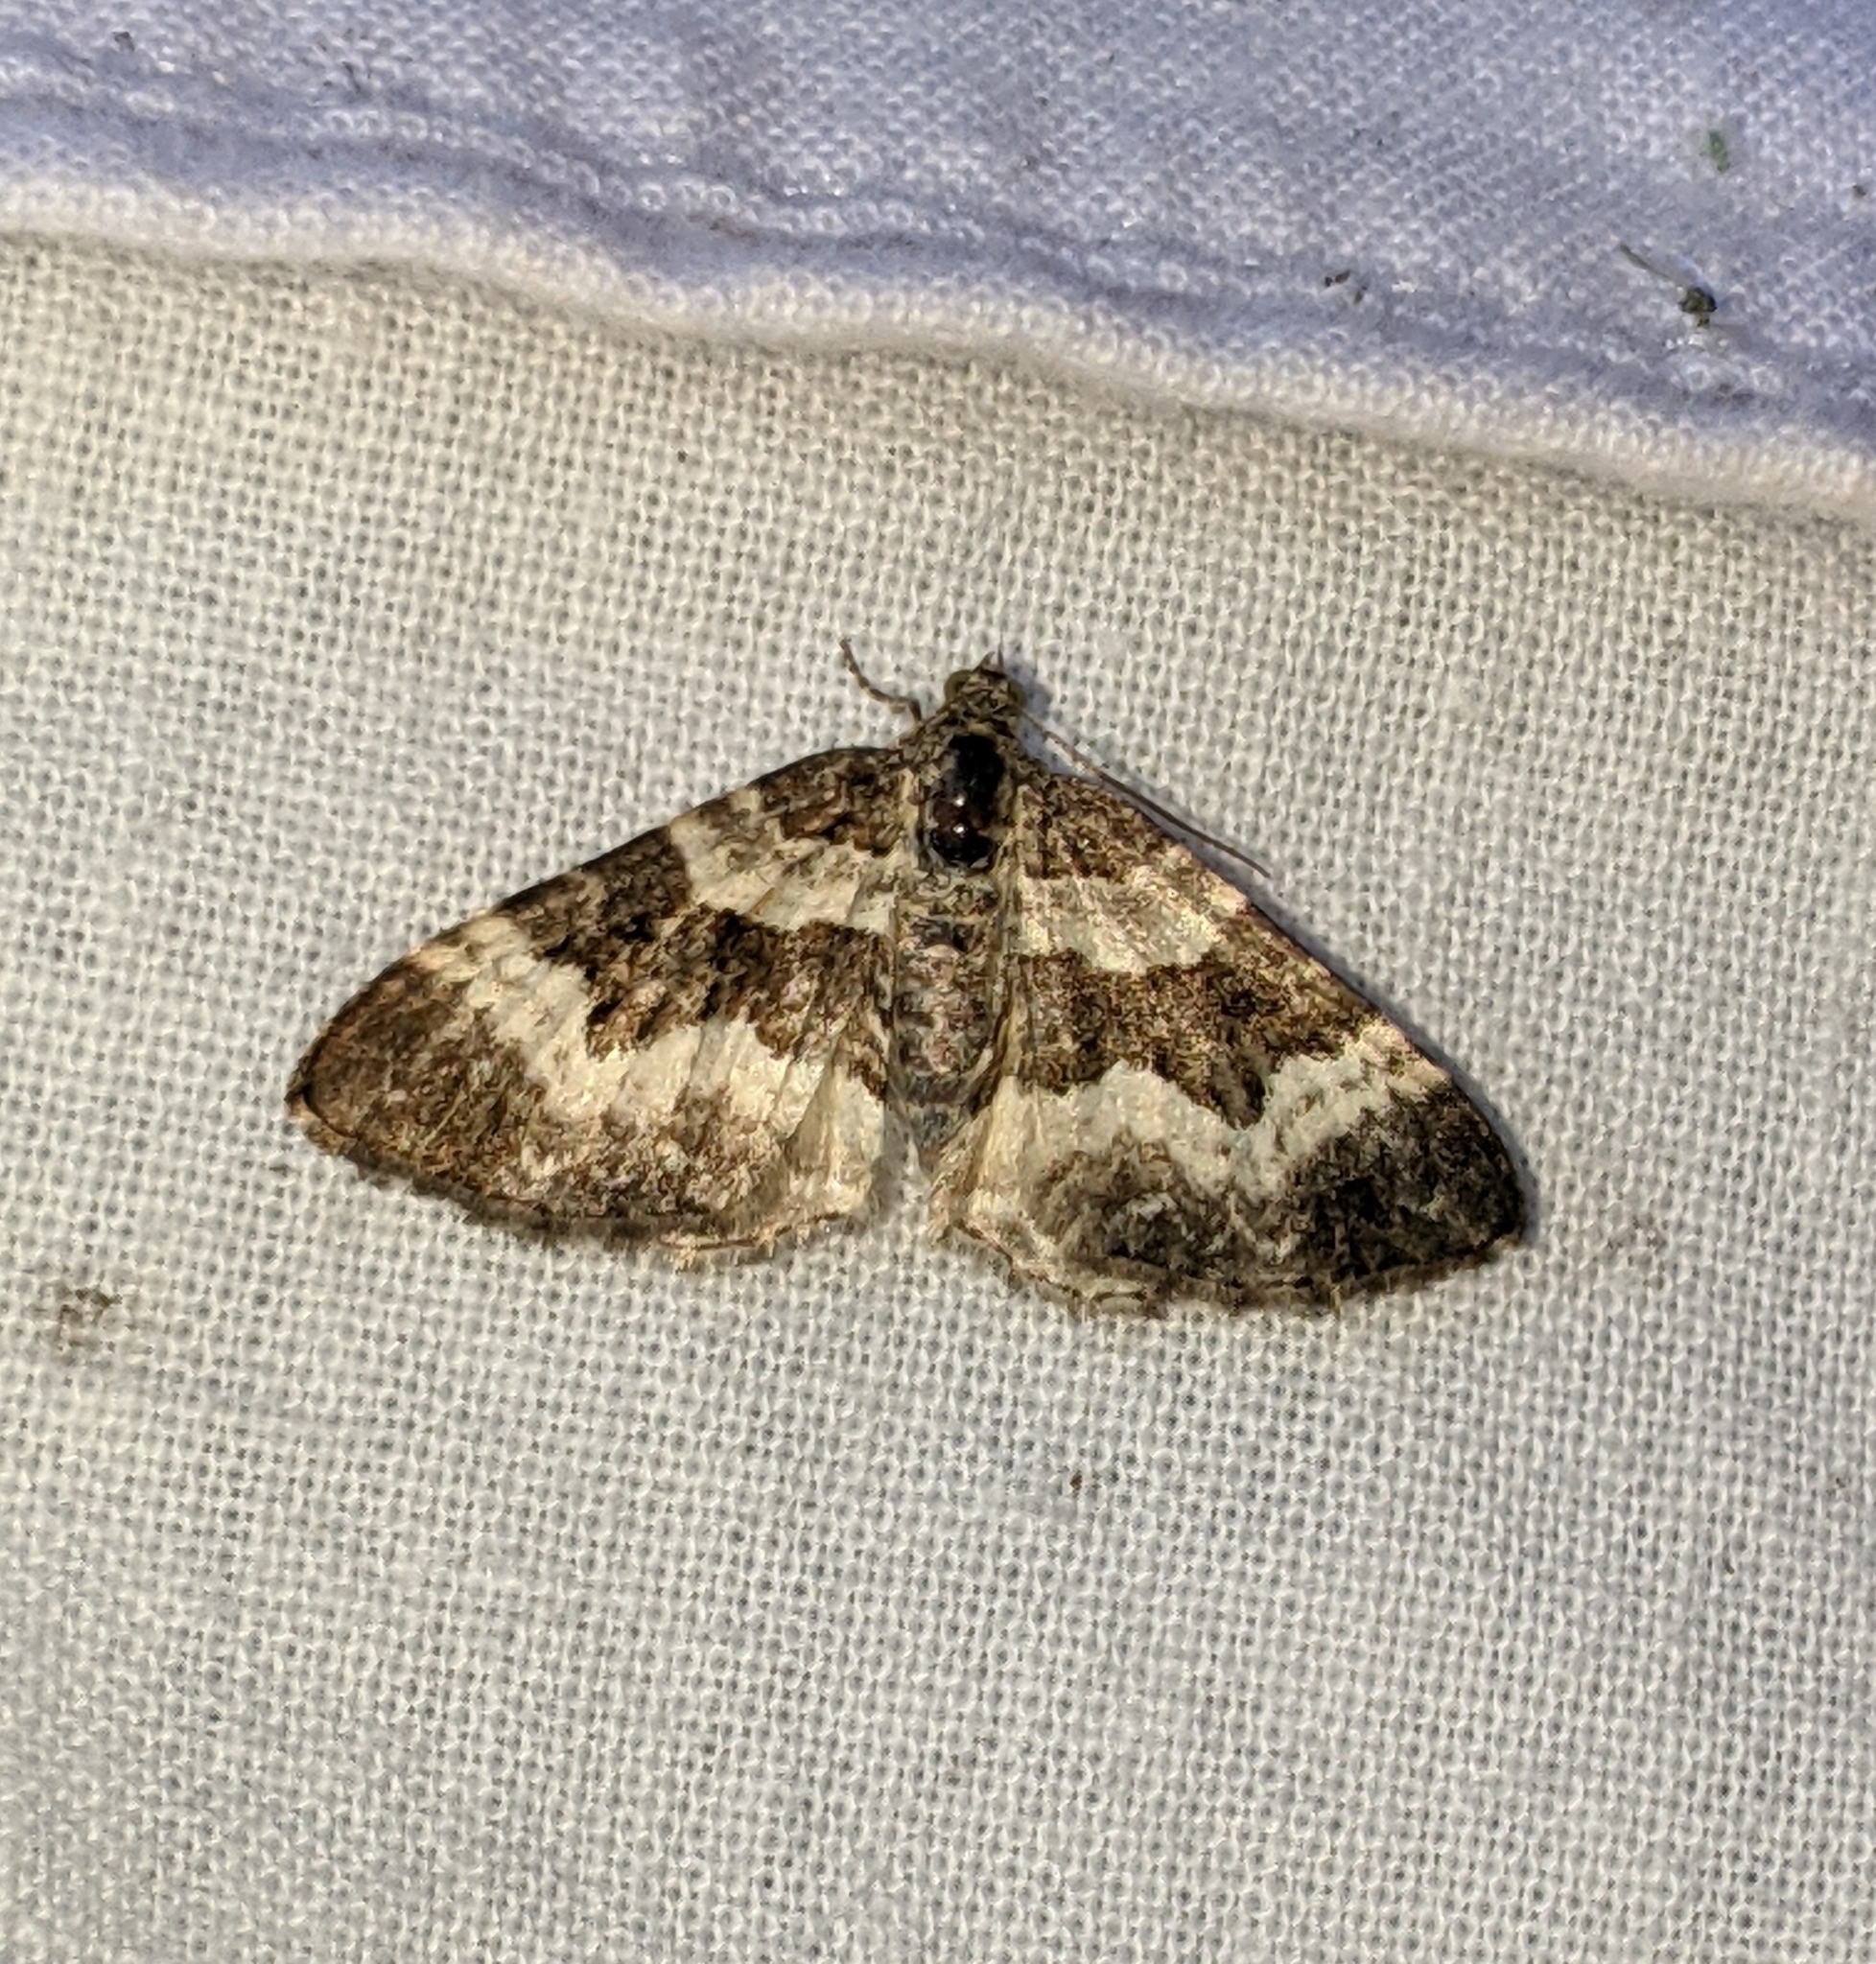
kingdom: Animalia
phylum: Arthropoda
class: Insecta
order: Lepidoptera
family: Geometridae
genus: Epirrhoe
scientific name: Epirrhoe alternata
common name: Common carpet
